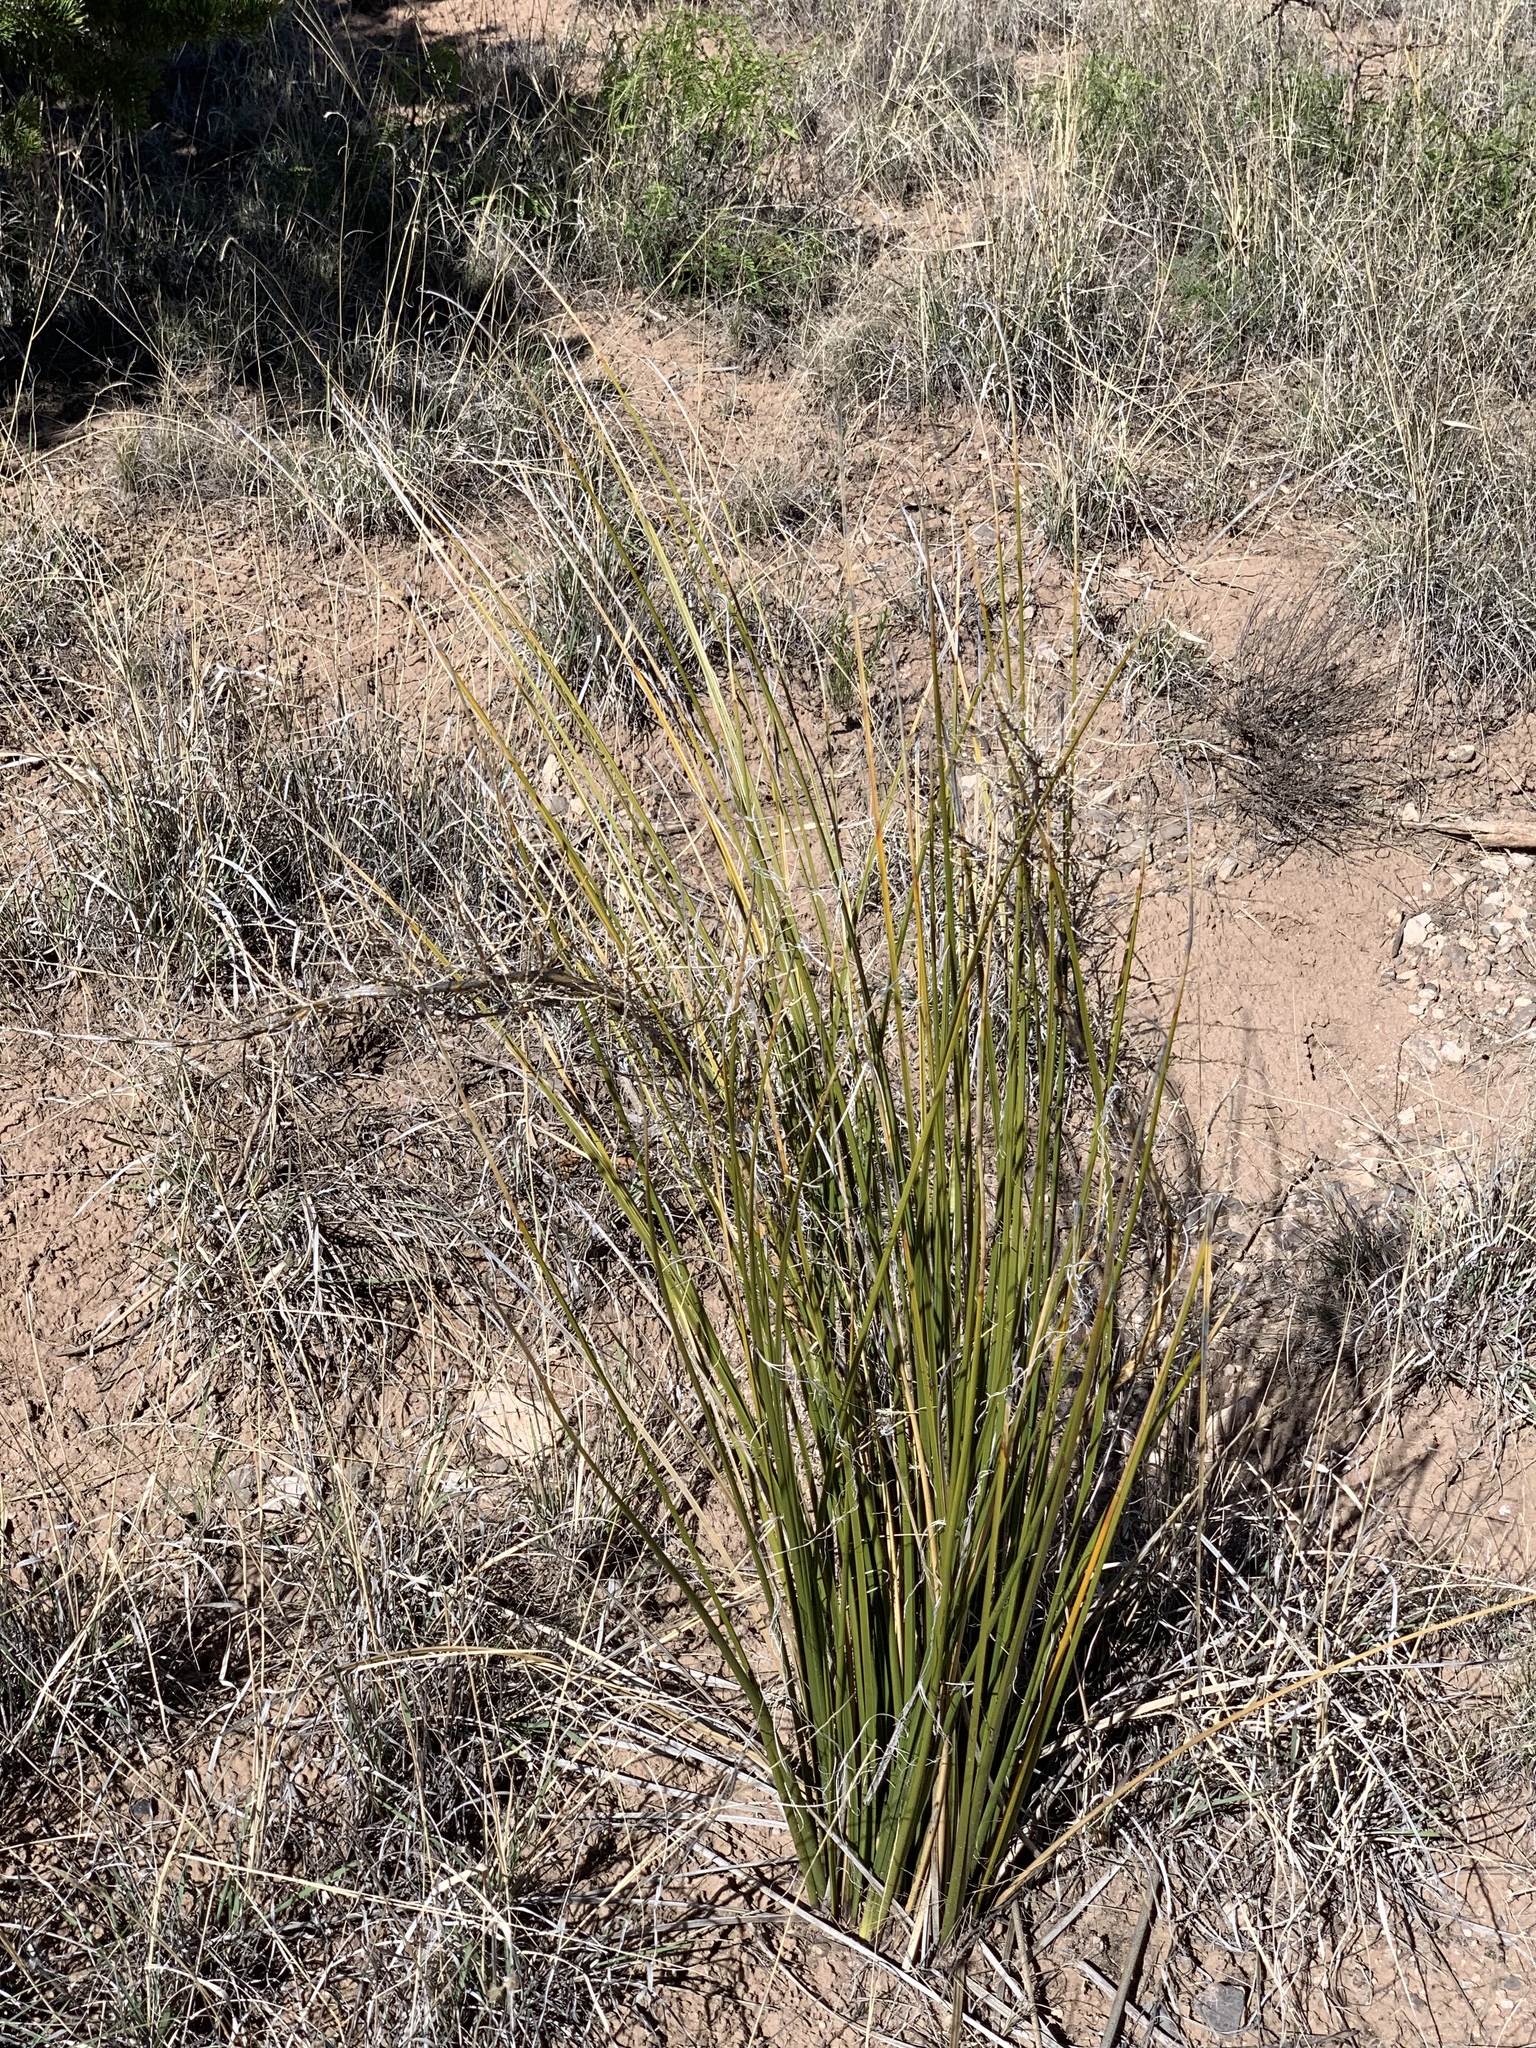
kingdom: Plantae
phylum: Tracheophyta
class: Liliopsida
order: Asparagales
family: Asparagaceae
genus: Nolina
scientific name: Nolina microcarpa
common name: Bear-grass
